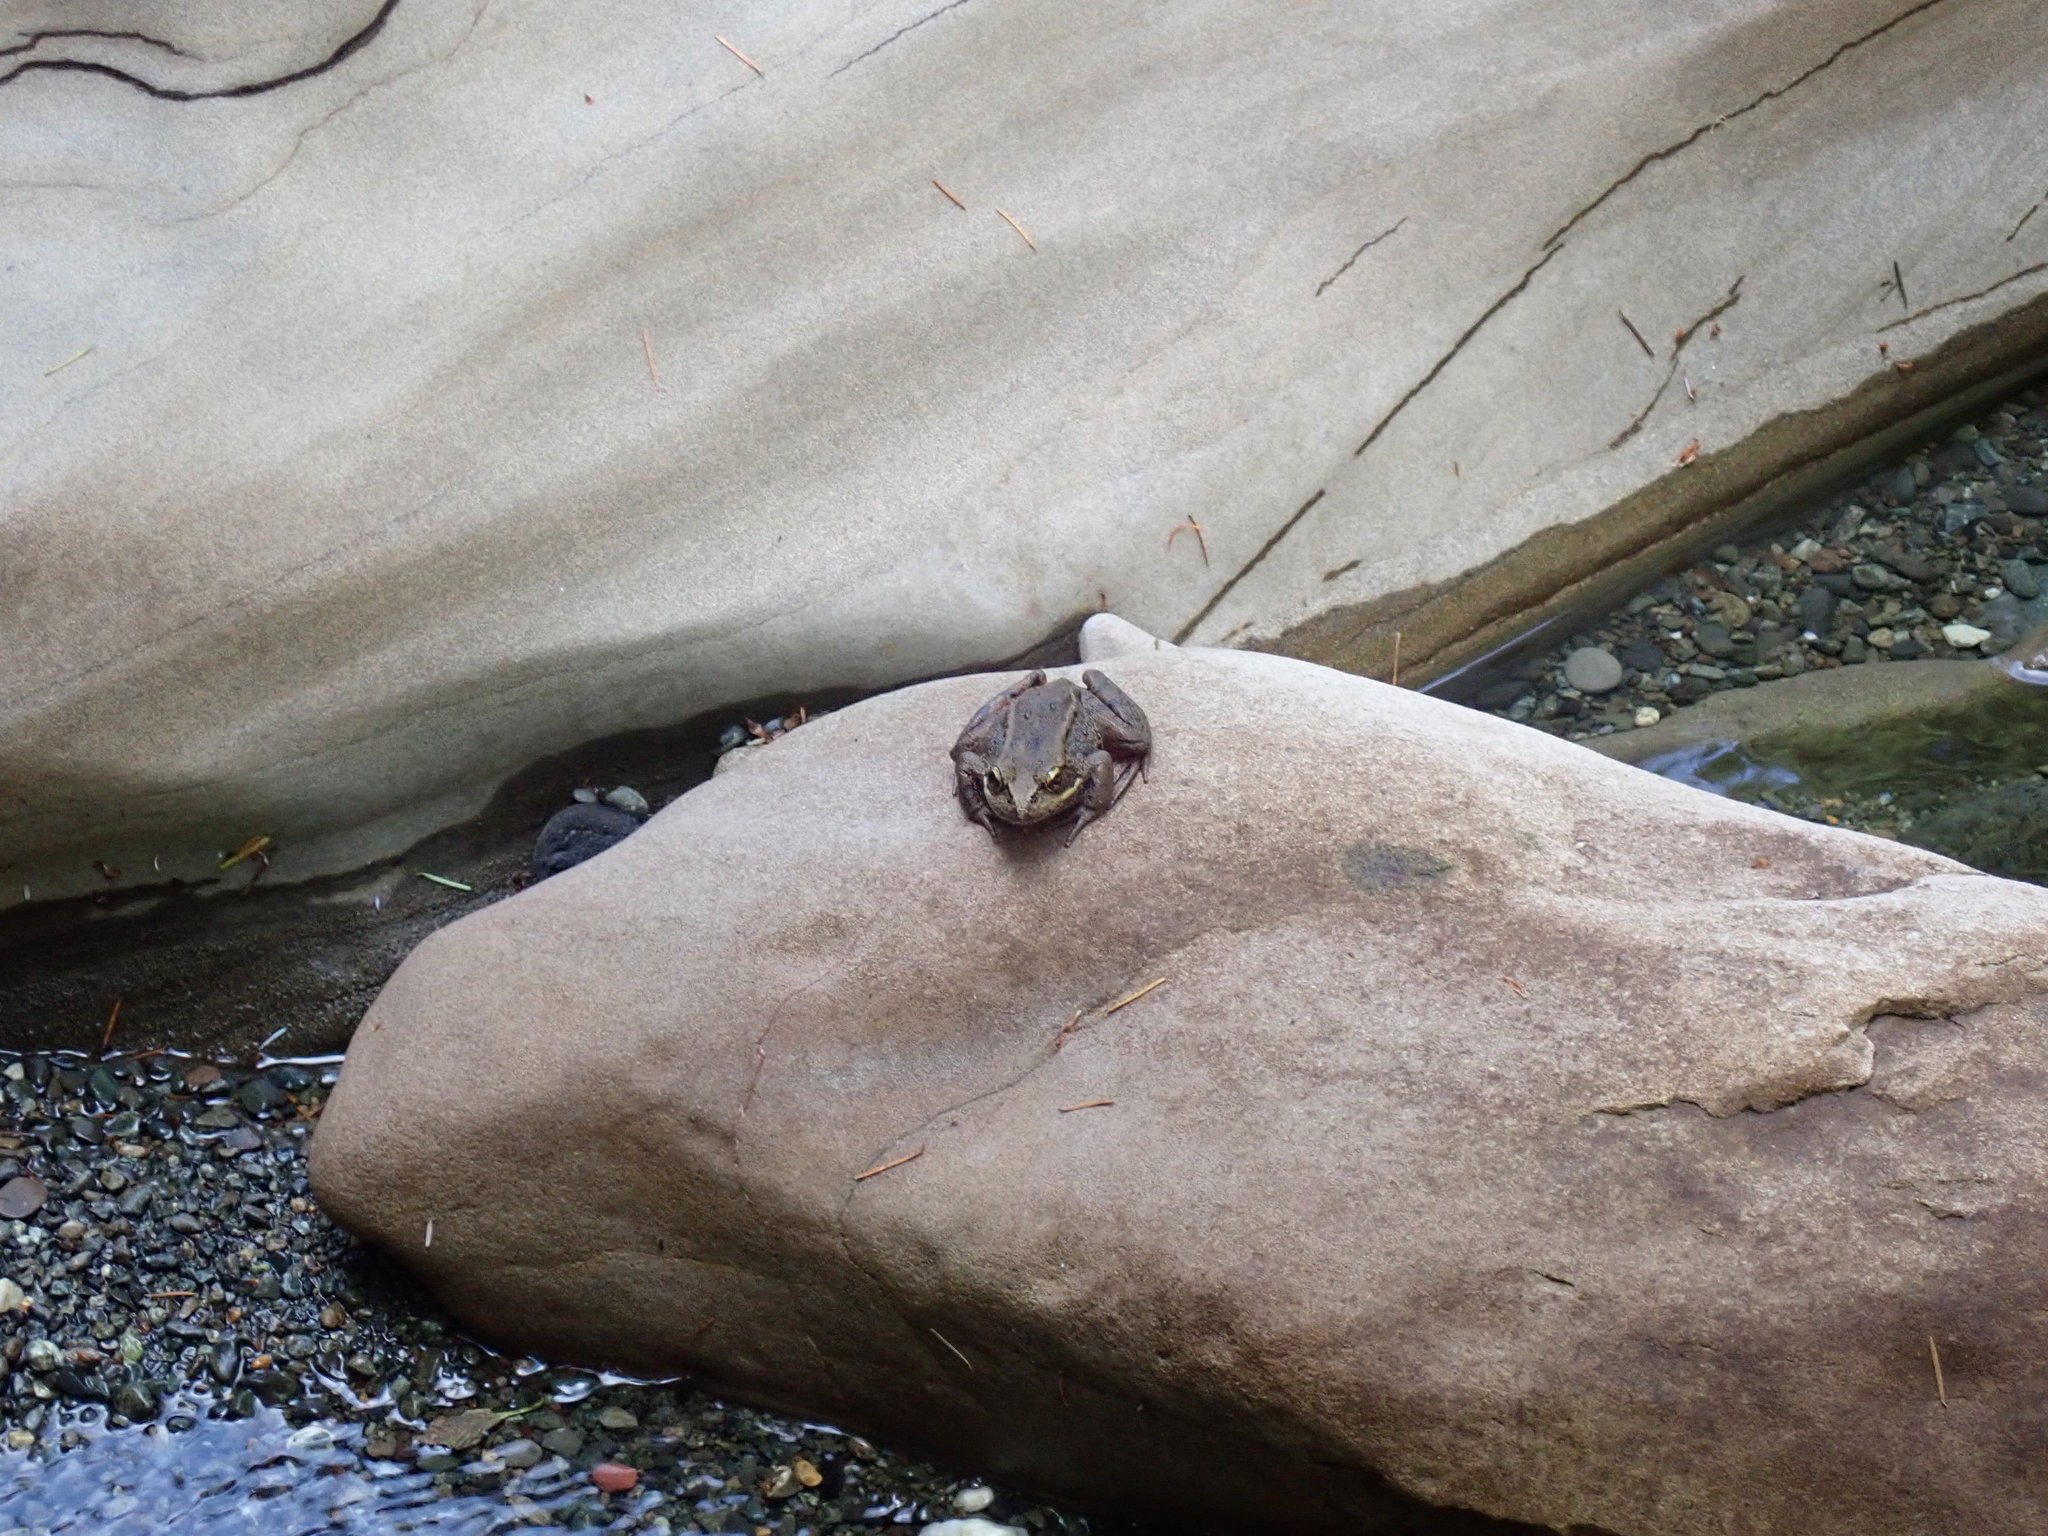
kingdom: Animalia
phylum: Chordata
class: Amphibia
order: Anura
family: Ranidae
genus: Rana
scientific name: Rana aurora
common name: Red-legged frog
